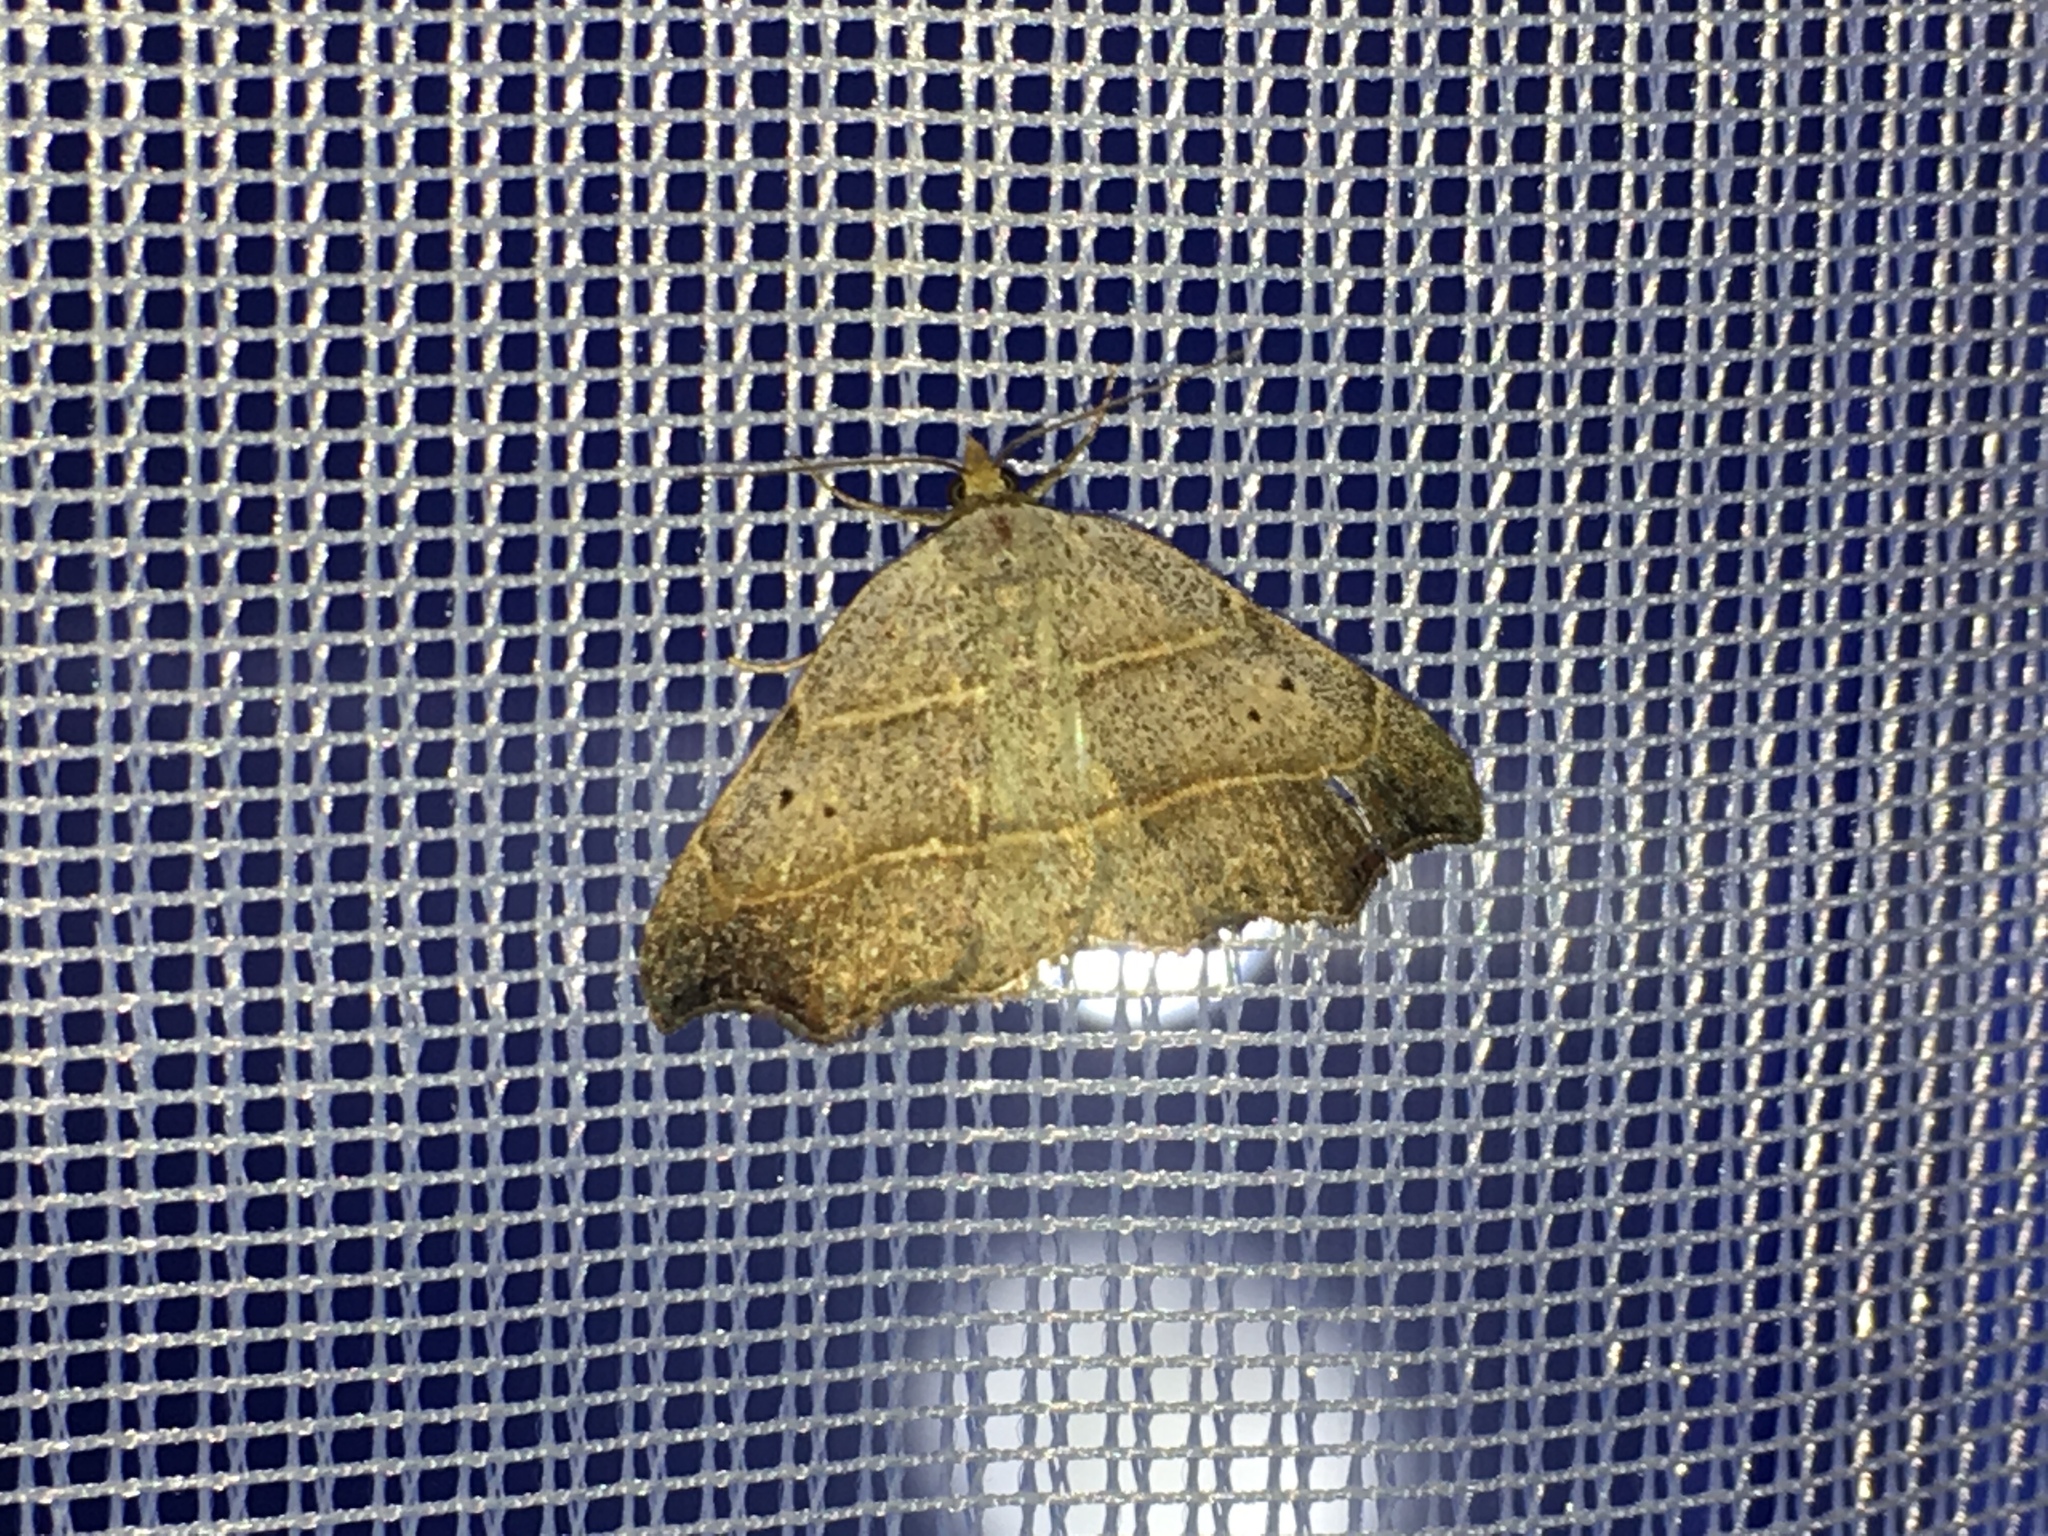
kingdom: Animalia
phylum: Arthropoda
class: Insecta
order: Lepidoptera
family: Erebidae
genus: Laspeyria
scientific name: Laspeyria flexula
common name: Beautiful hook-tip
